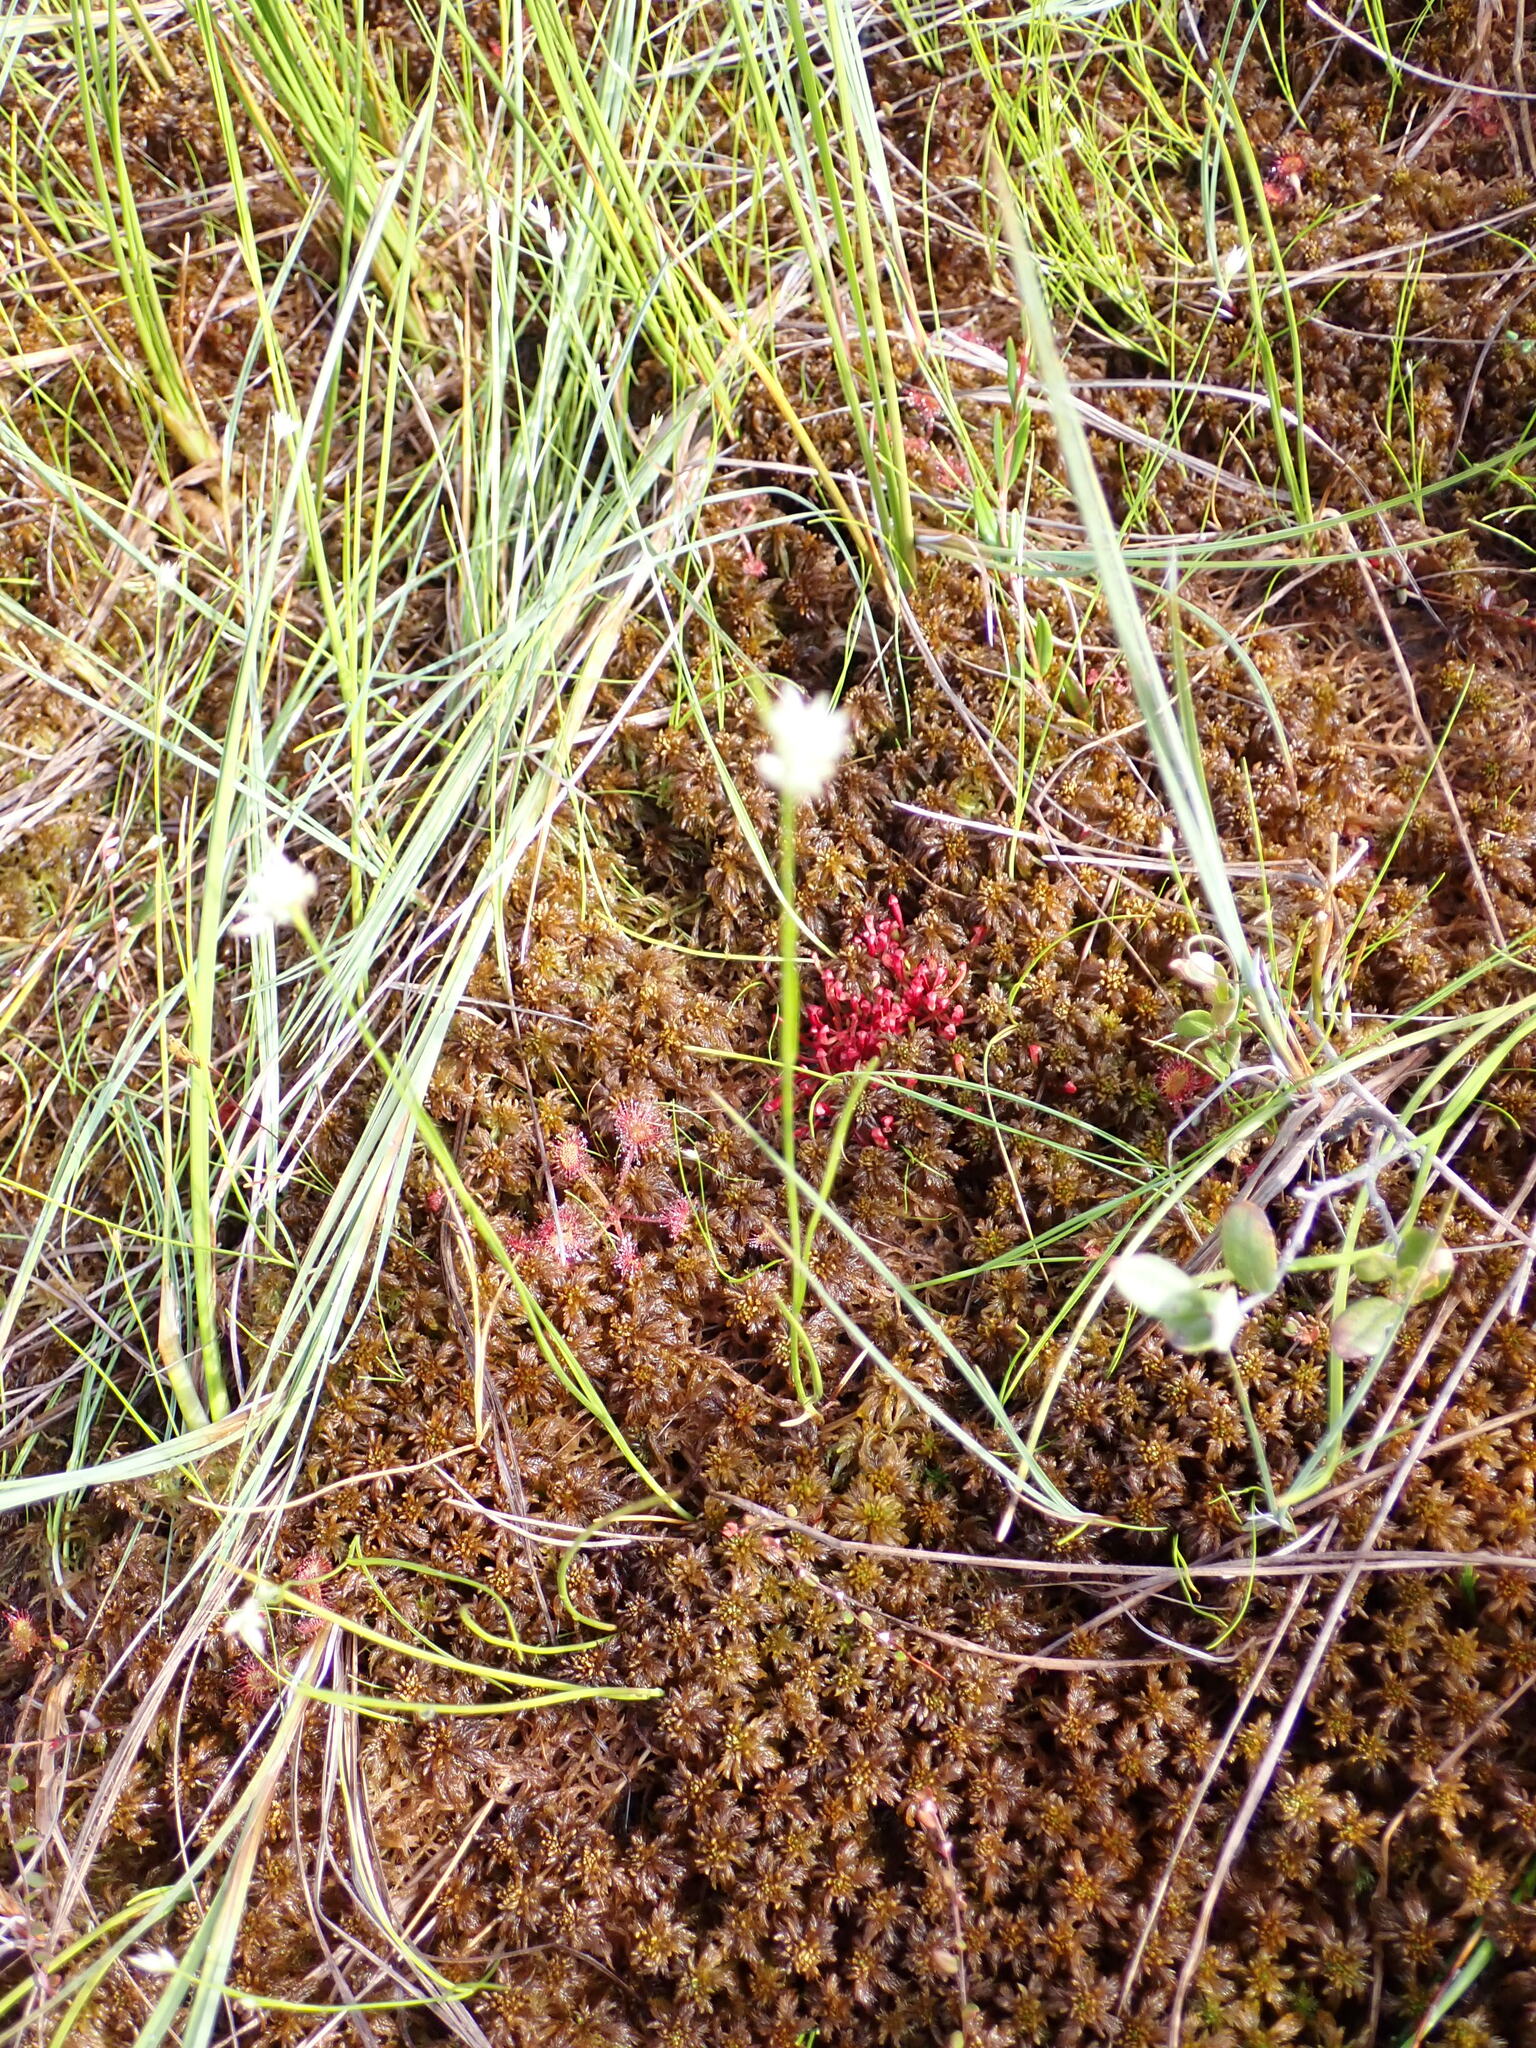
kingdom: Plantae
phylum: Tracheophyta
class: Liliopsida
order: Poales
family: Cyperaceae
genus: Rhynchospora
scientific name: Rhynchospora alba
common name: White beak-sedge
